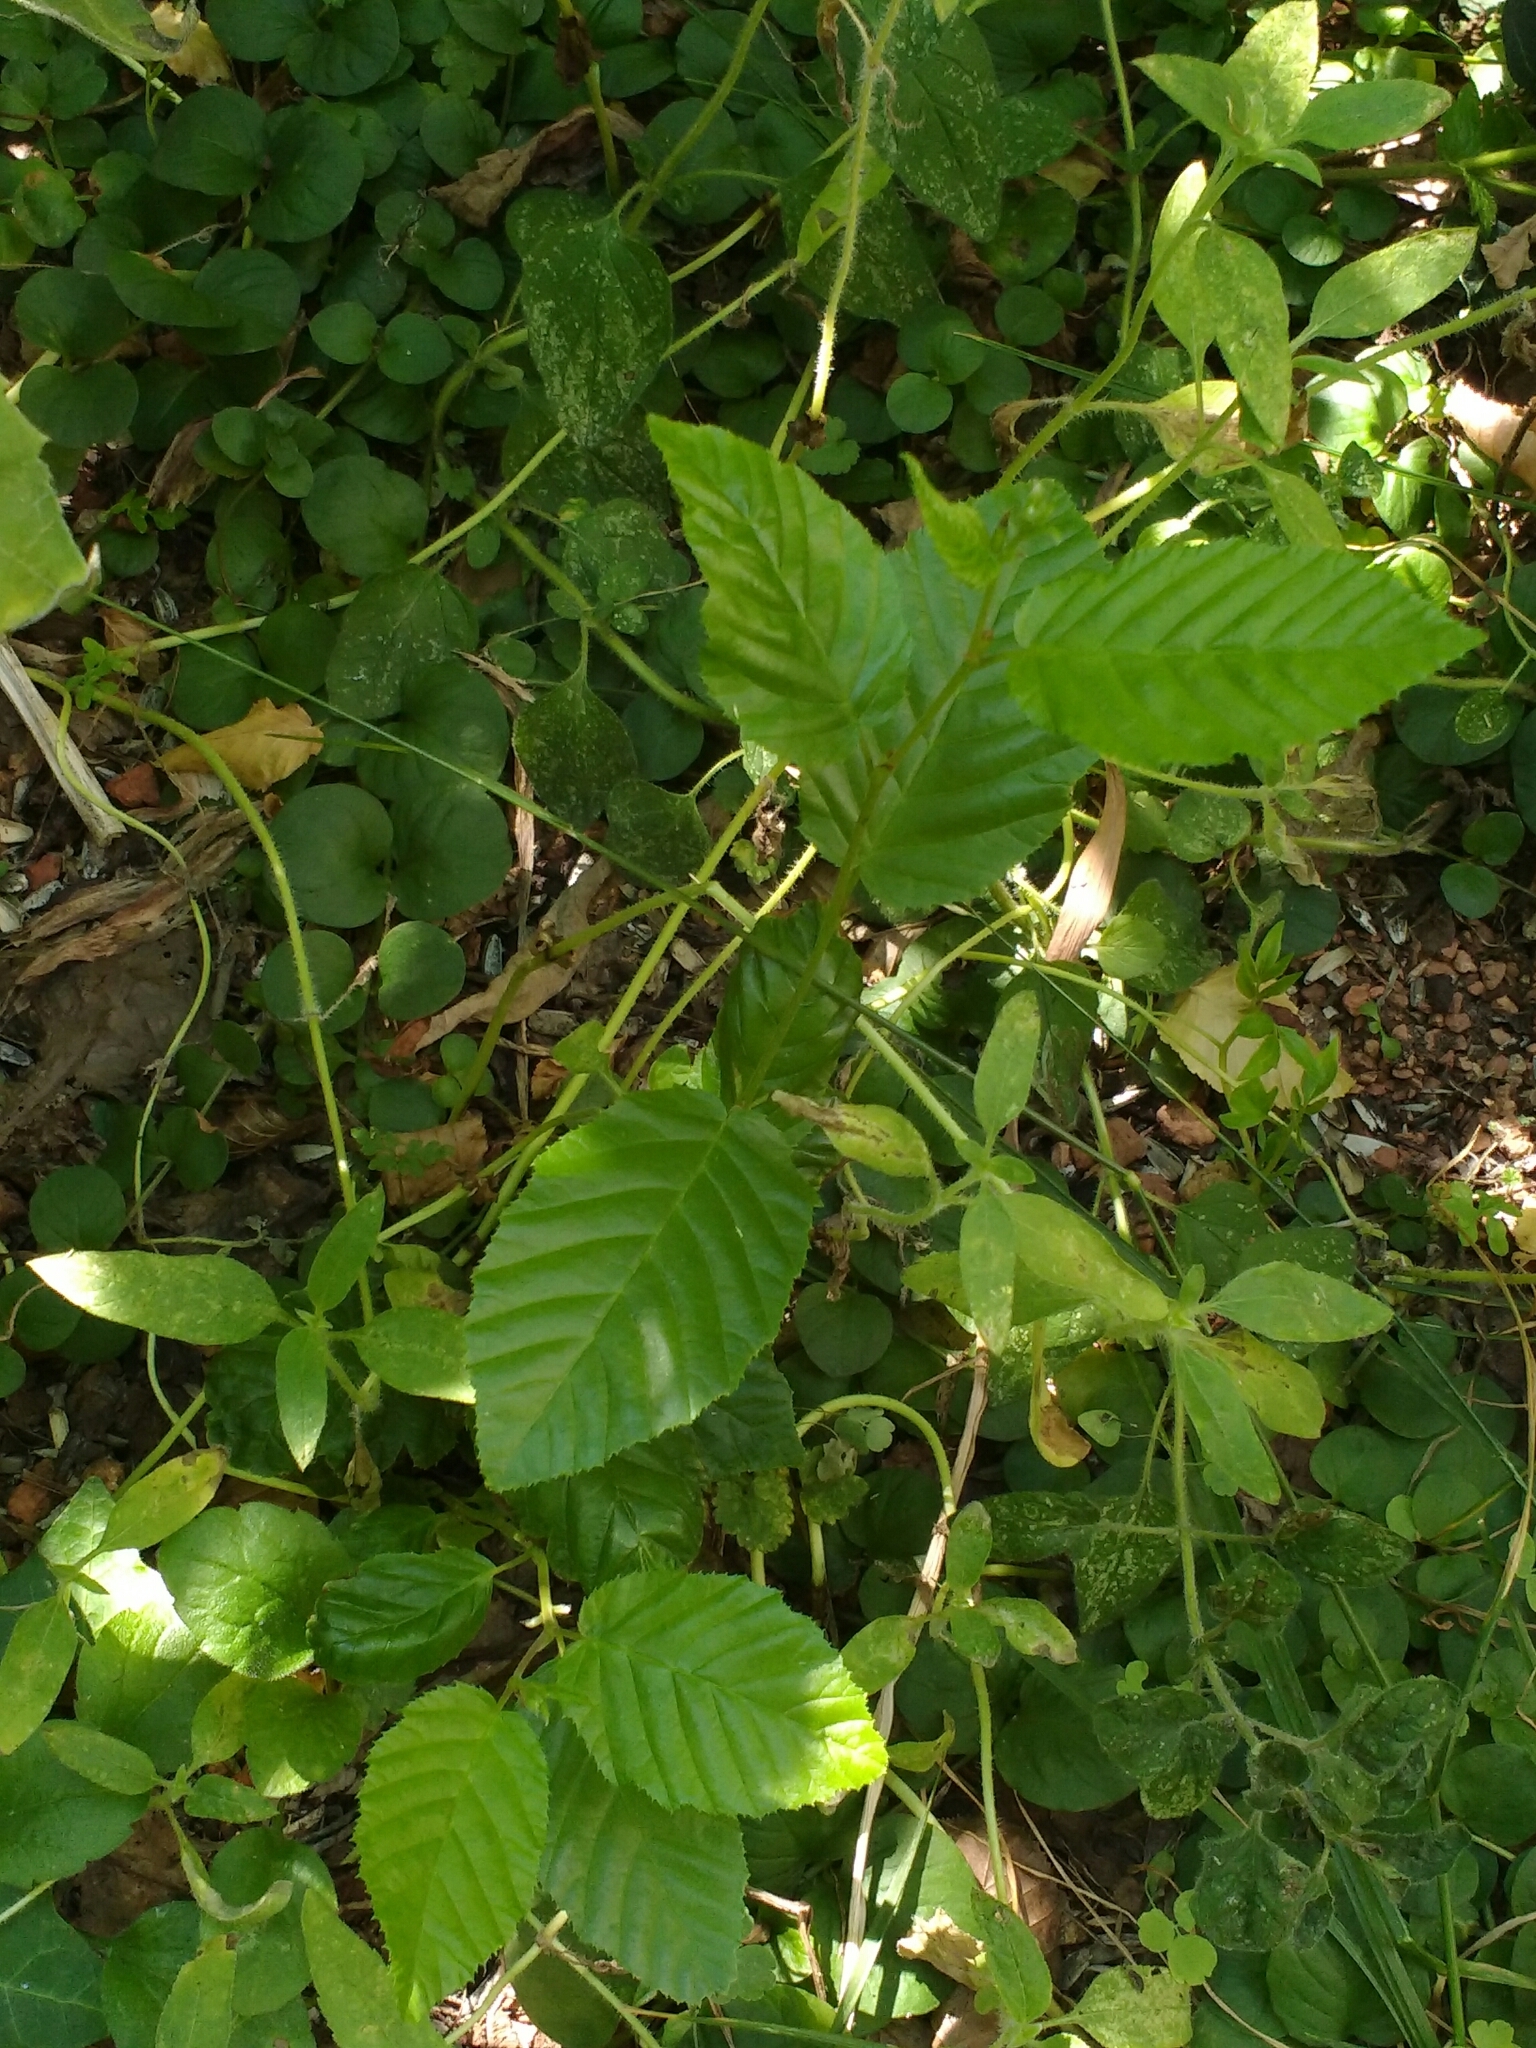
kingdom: Plantae
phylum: Tracheophyta
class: Magnoliopsida
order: Fagales
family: Betulaceae
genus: Carpinus
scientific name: Carpinus betulus
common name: Hornbeam
